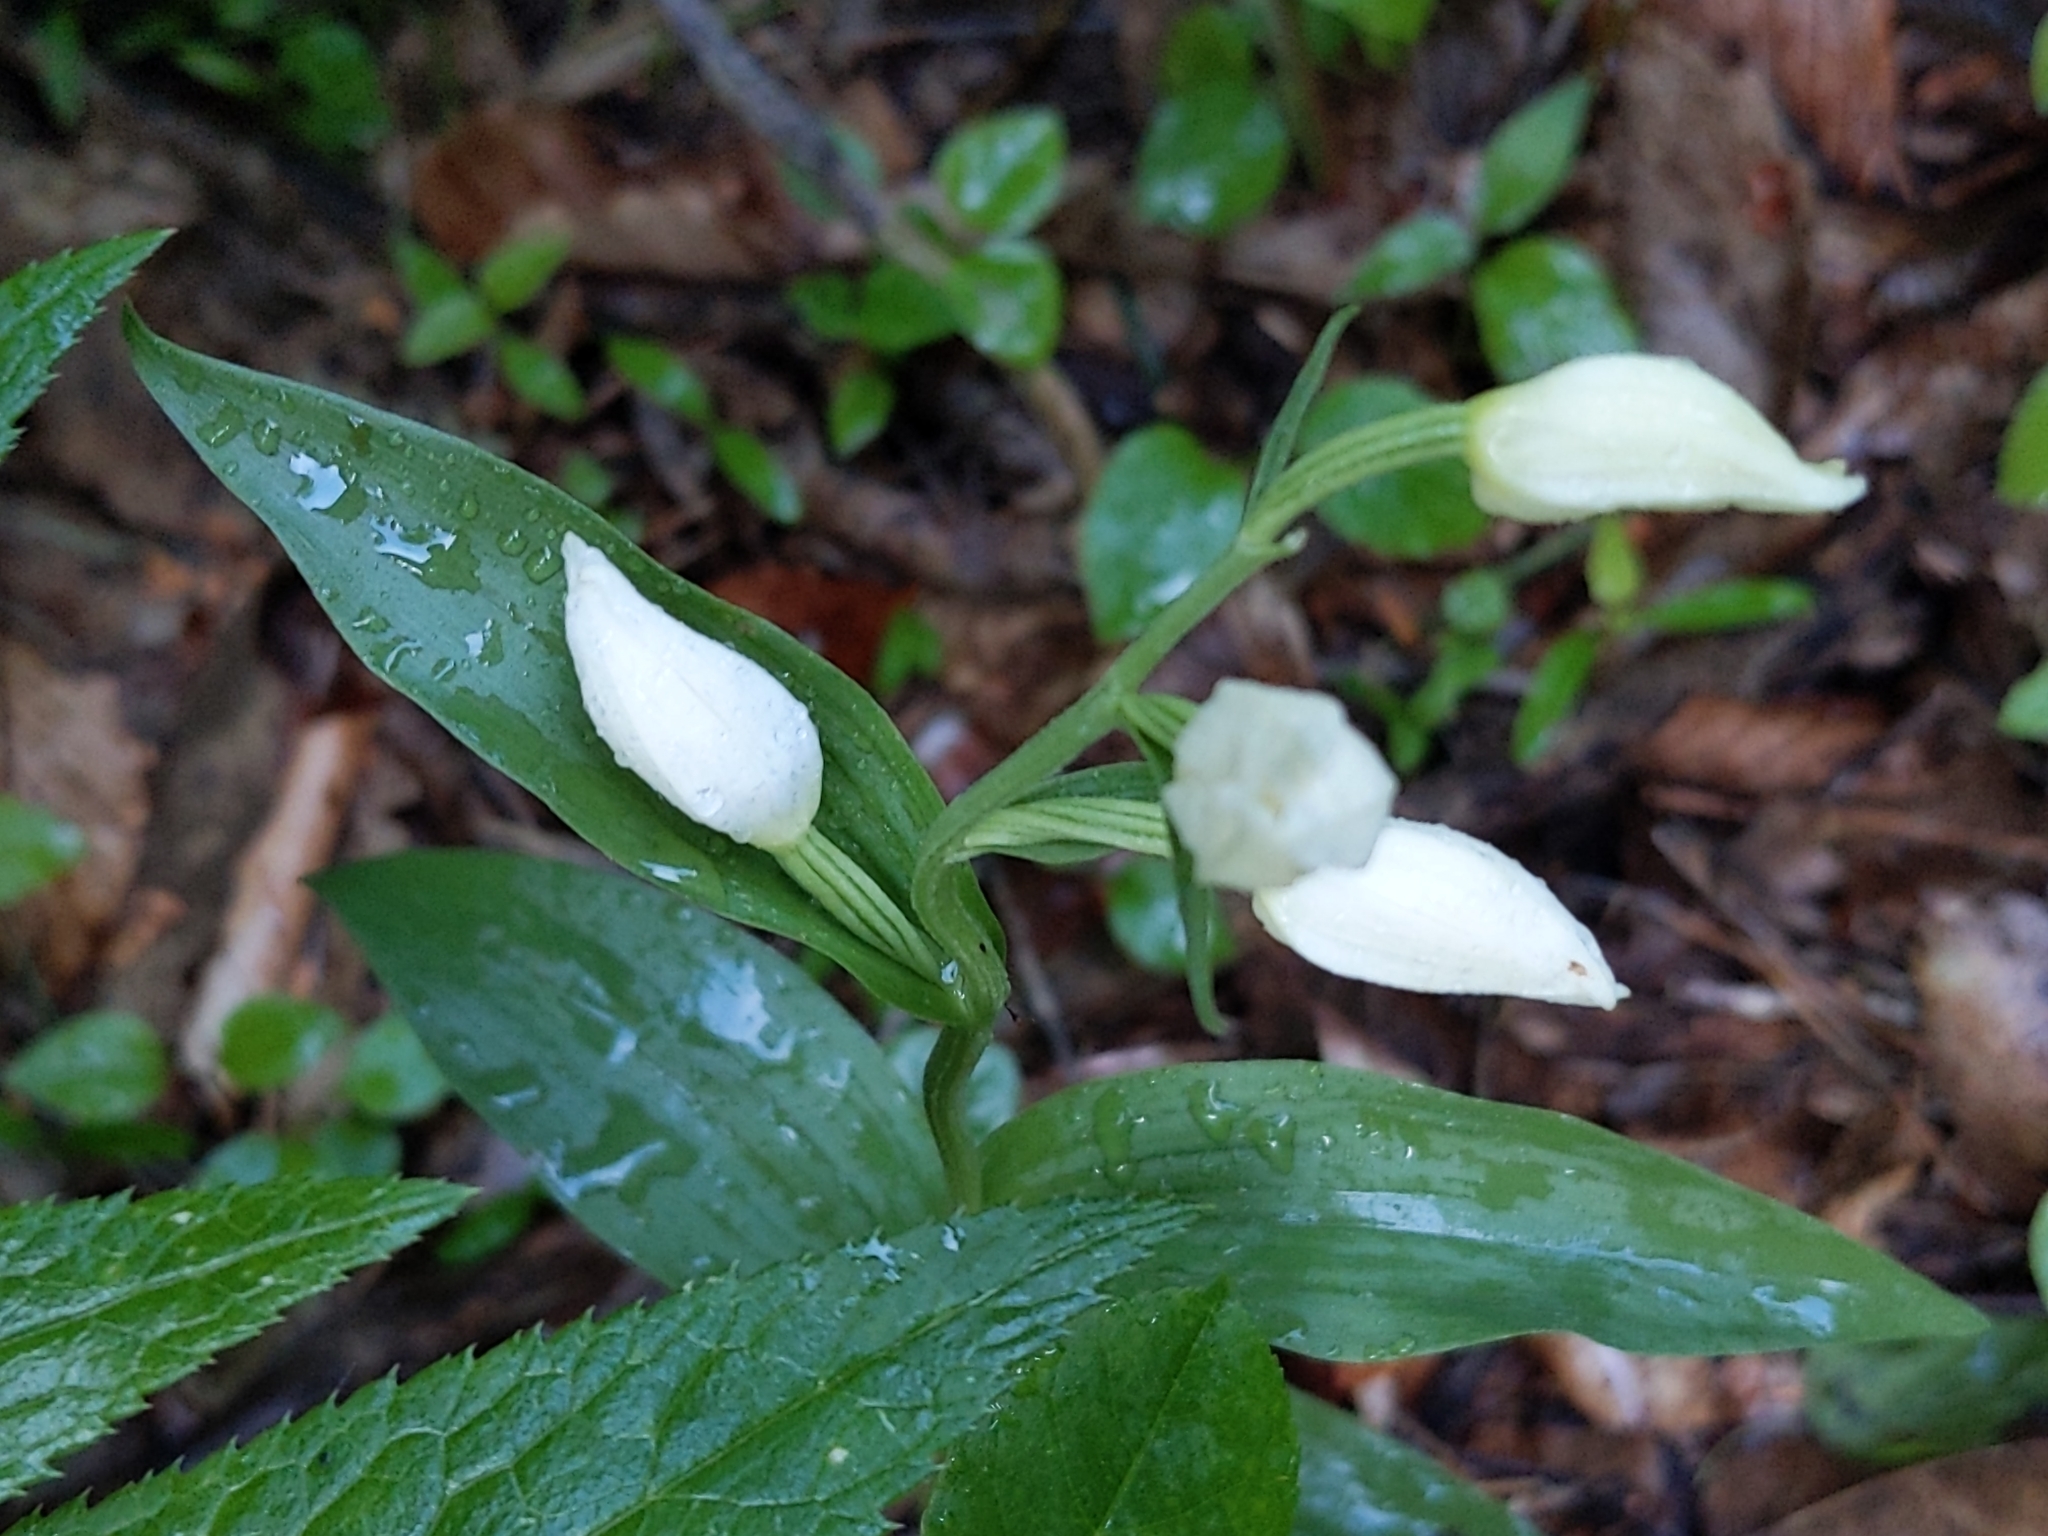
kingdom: Plantae
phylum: Tracheophyta
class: Liliopsida
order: Asparagales
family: Orchidaceae
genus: Cephalanthera
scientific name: Cephalanthera damasonium
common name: White helleborine
